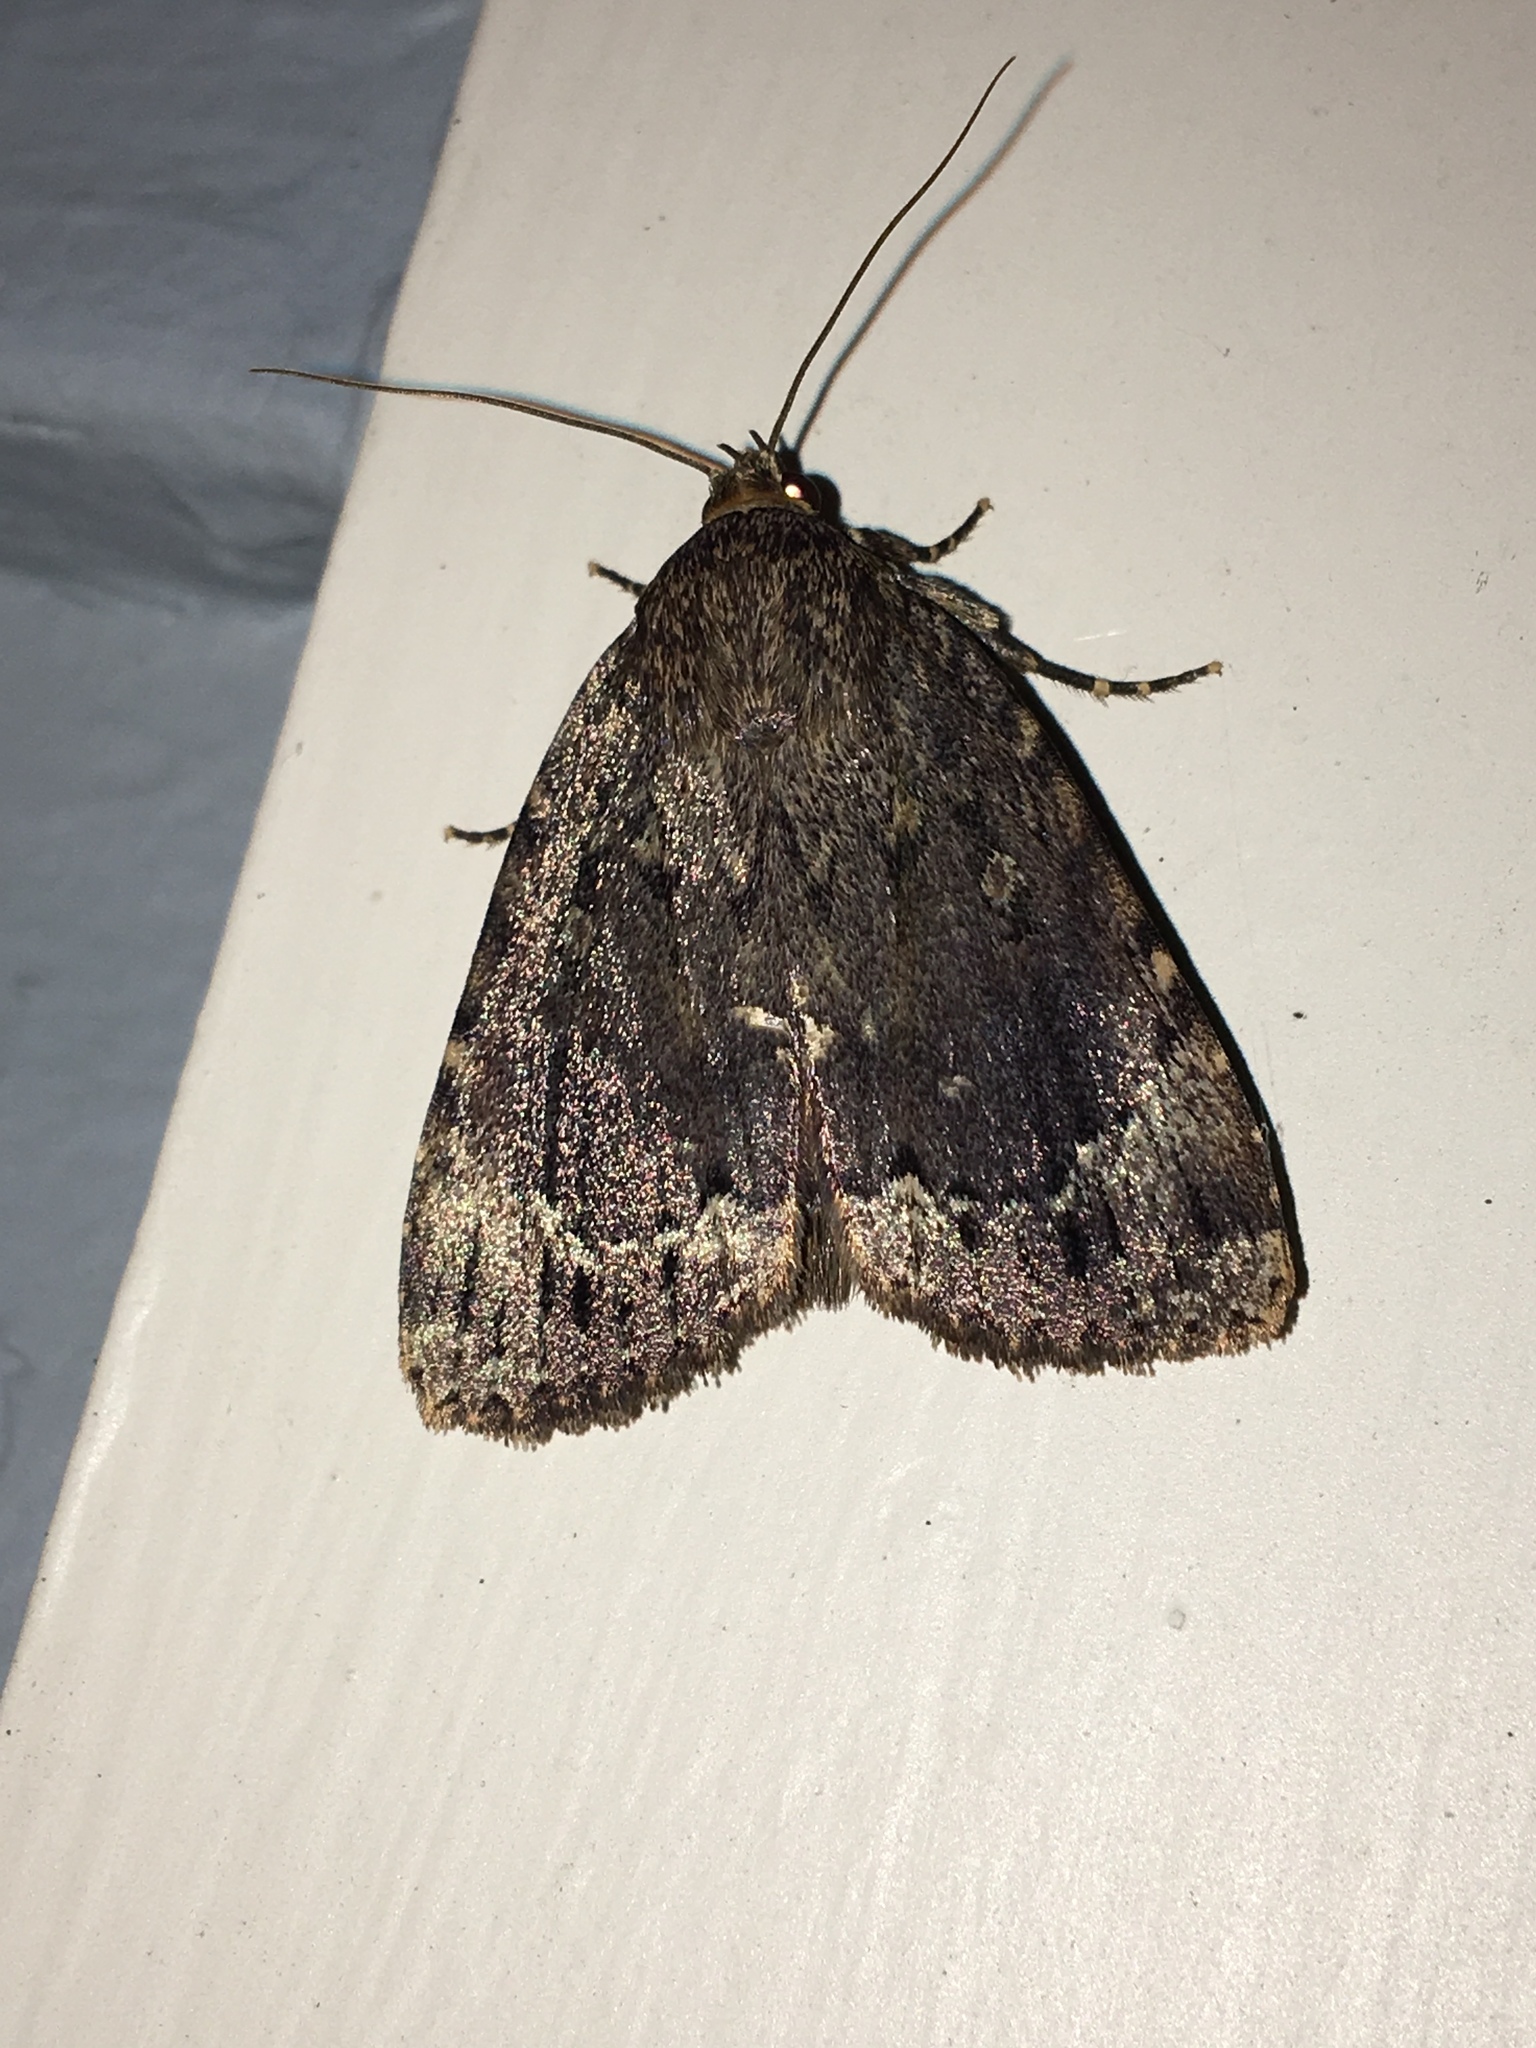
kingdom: Animalia
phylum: Arthropoda
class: Insecta
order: Lepidoptera
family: Noctuidae
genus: Amphipyra
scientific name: Amphipyra pyramidoides
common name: American copper underwing
